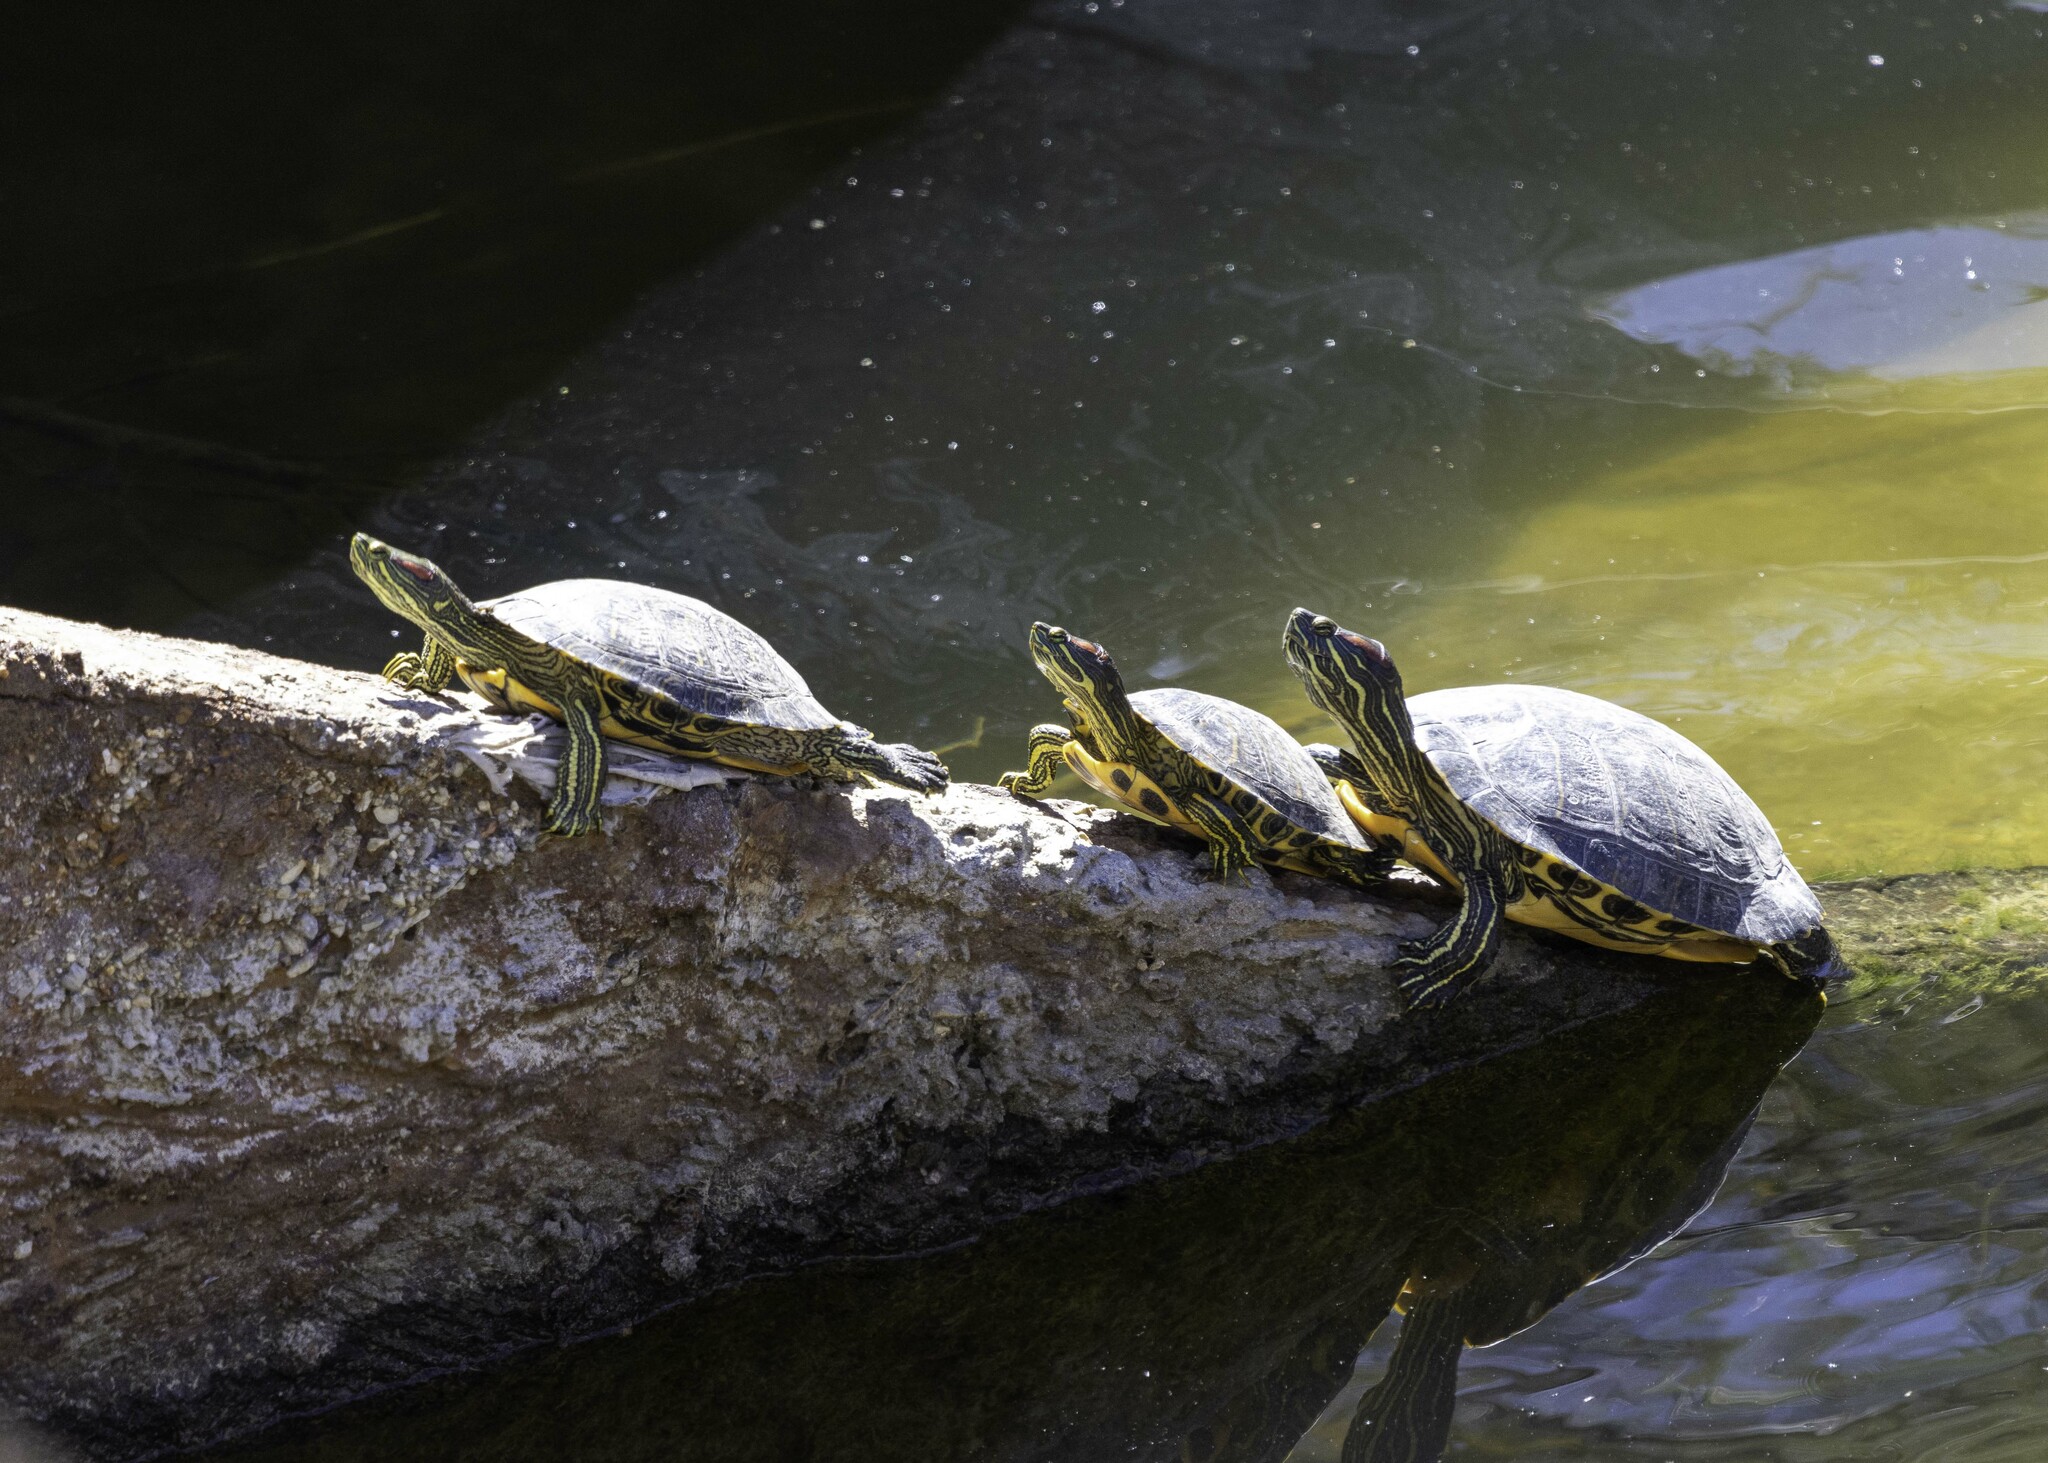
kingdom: Animalia
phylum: Chordata
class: Testudines
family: Emydidae
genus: Trachemys
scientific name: Trachemys scripta
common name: Slider
